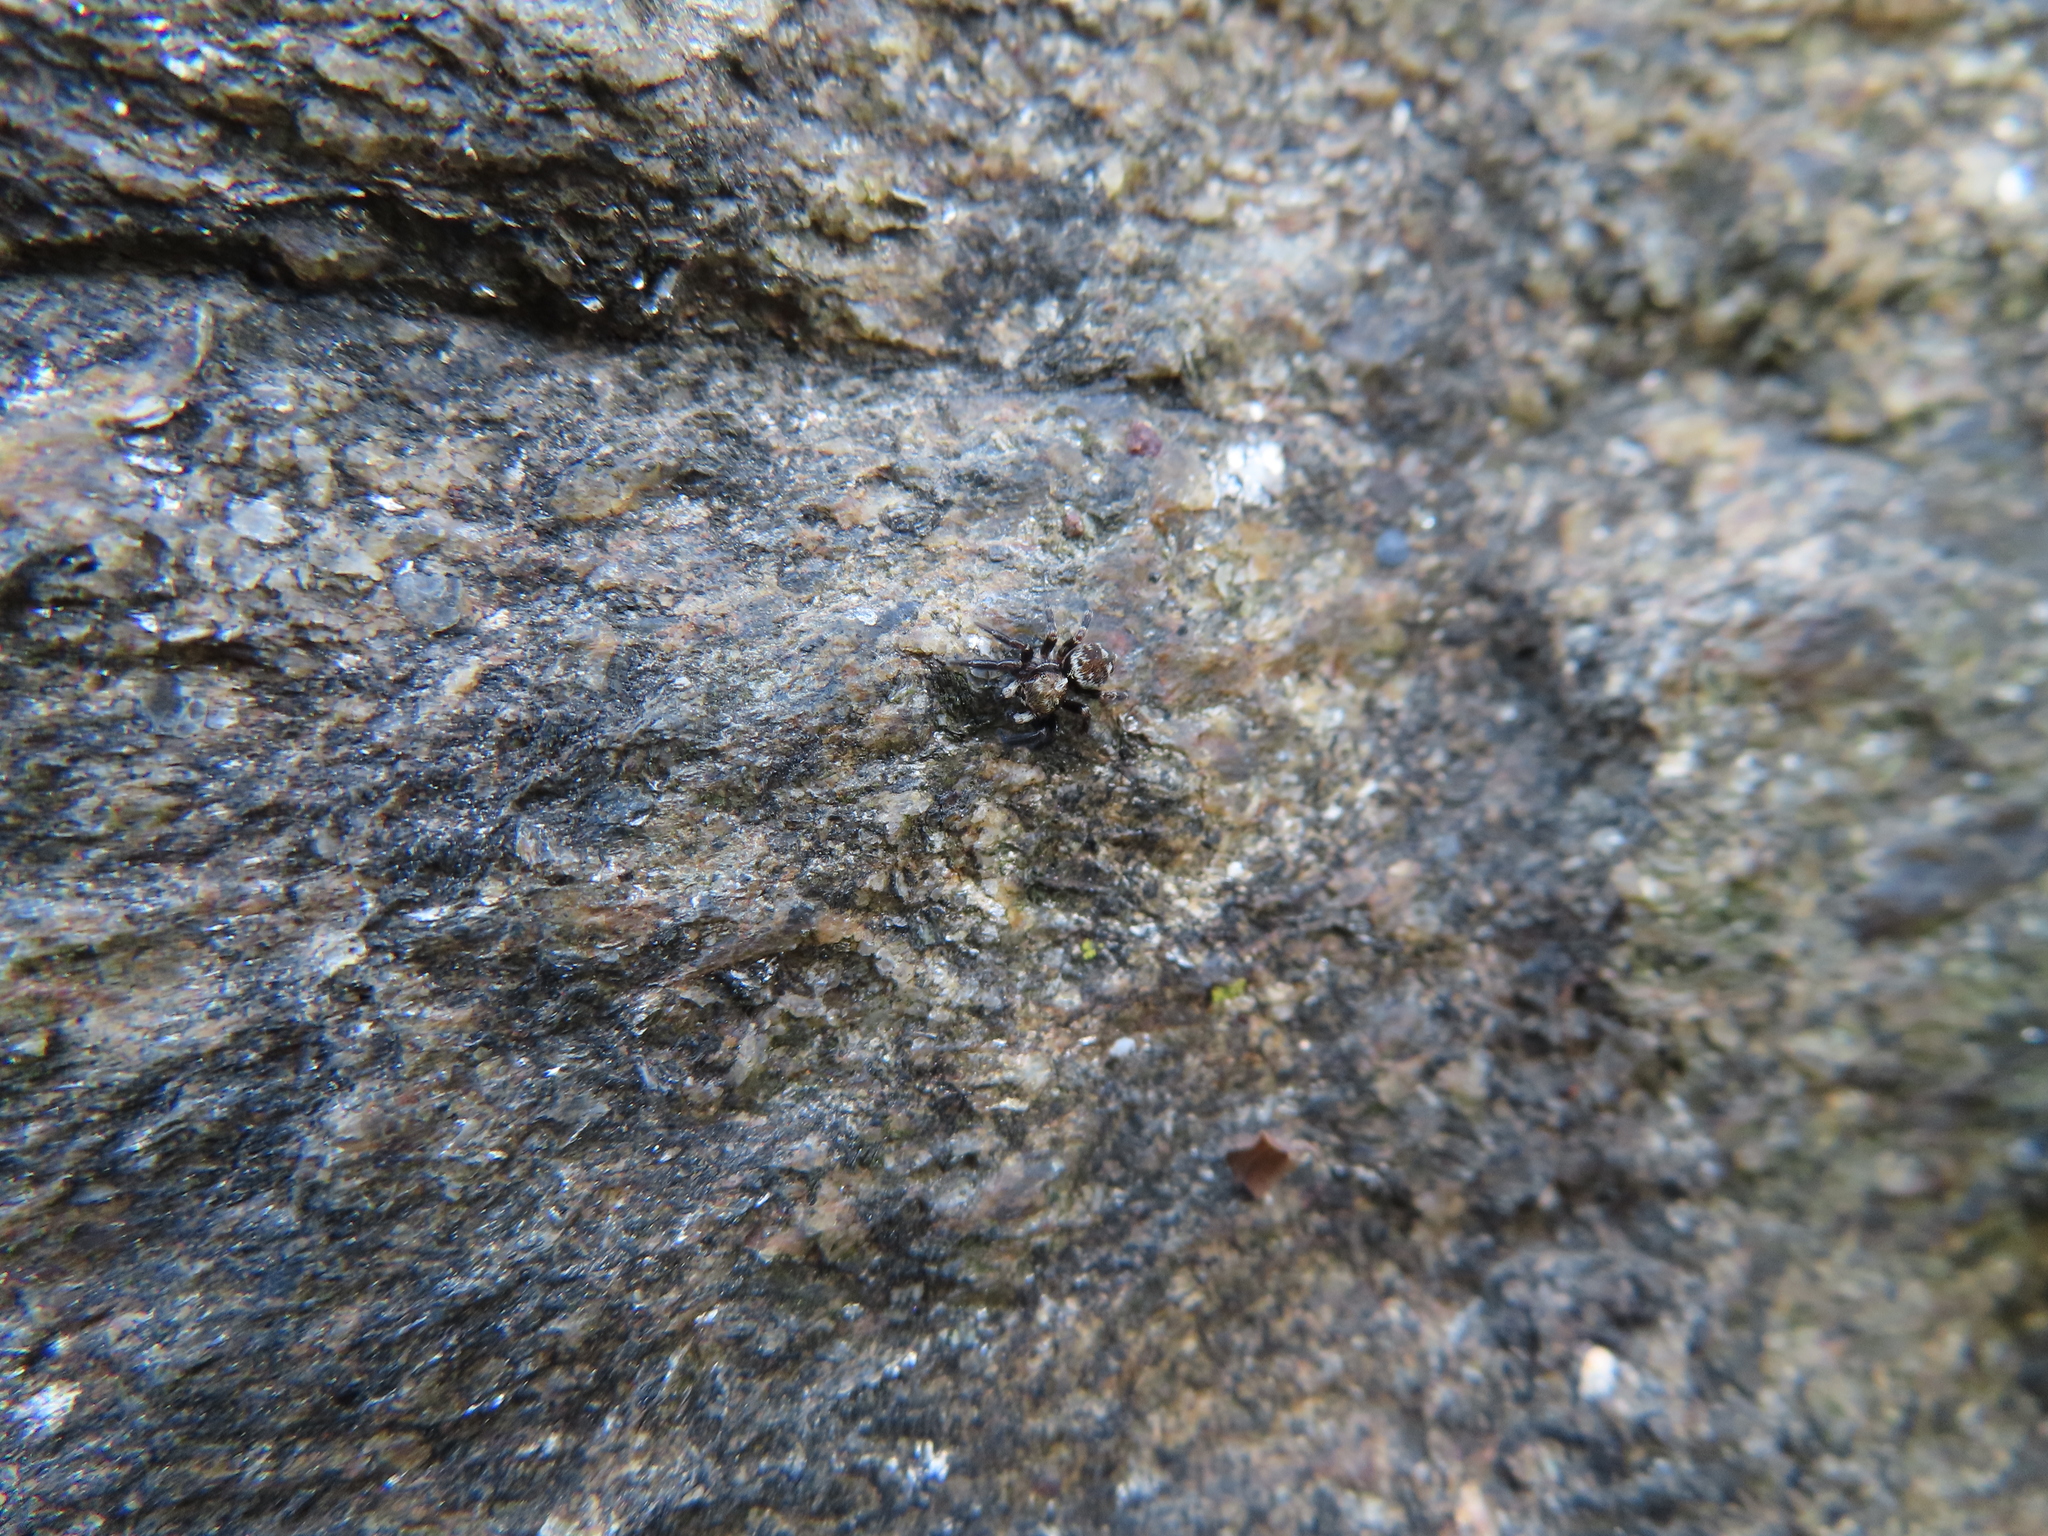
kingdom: Animalia
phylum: Arthropoda
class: Arachnida
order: Araneae
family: Salticidae
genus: Pseudeuophrys
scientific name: Pseudeuophrys erratica
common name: Jumping spider
